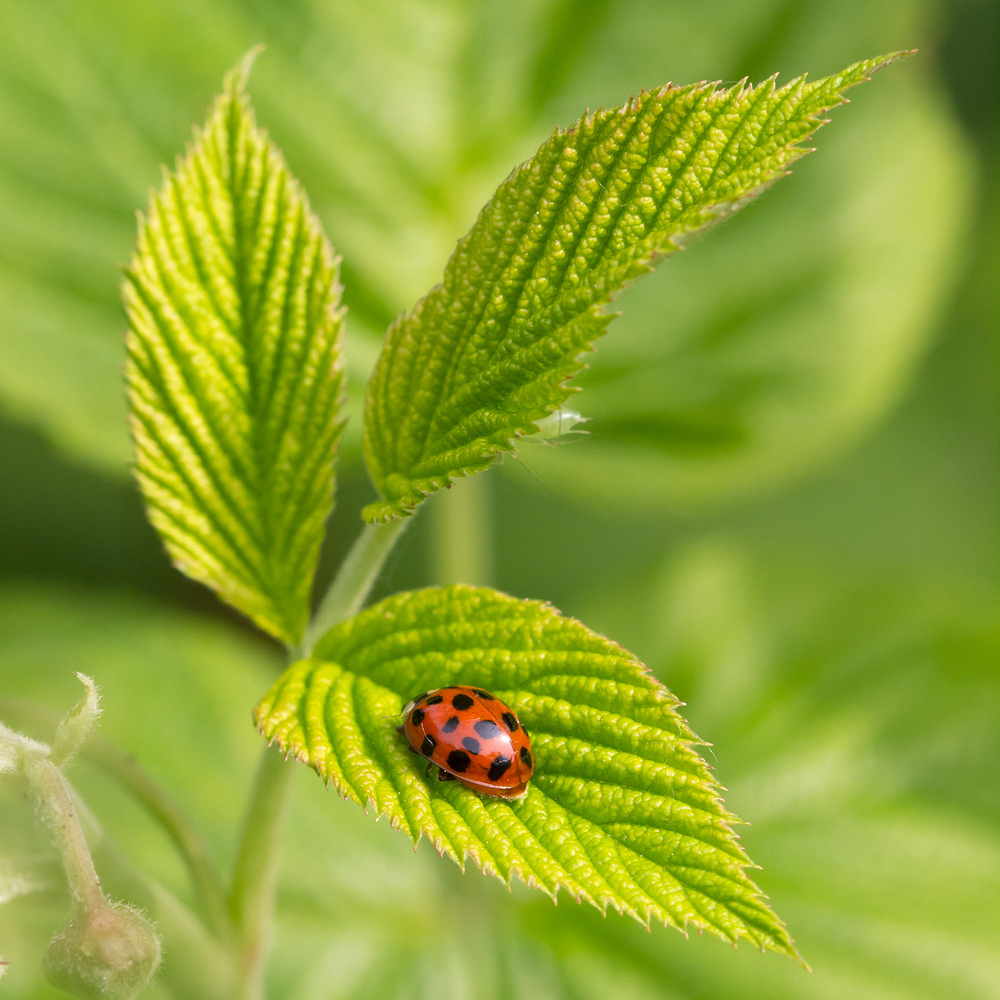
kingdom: Animalia
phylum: Arthropoda
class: Insecta
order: Coleoptera
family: Coccinellidae
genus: Harmonia
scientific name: Harmonia axyridis
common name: Harlequin ladybird
